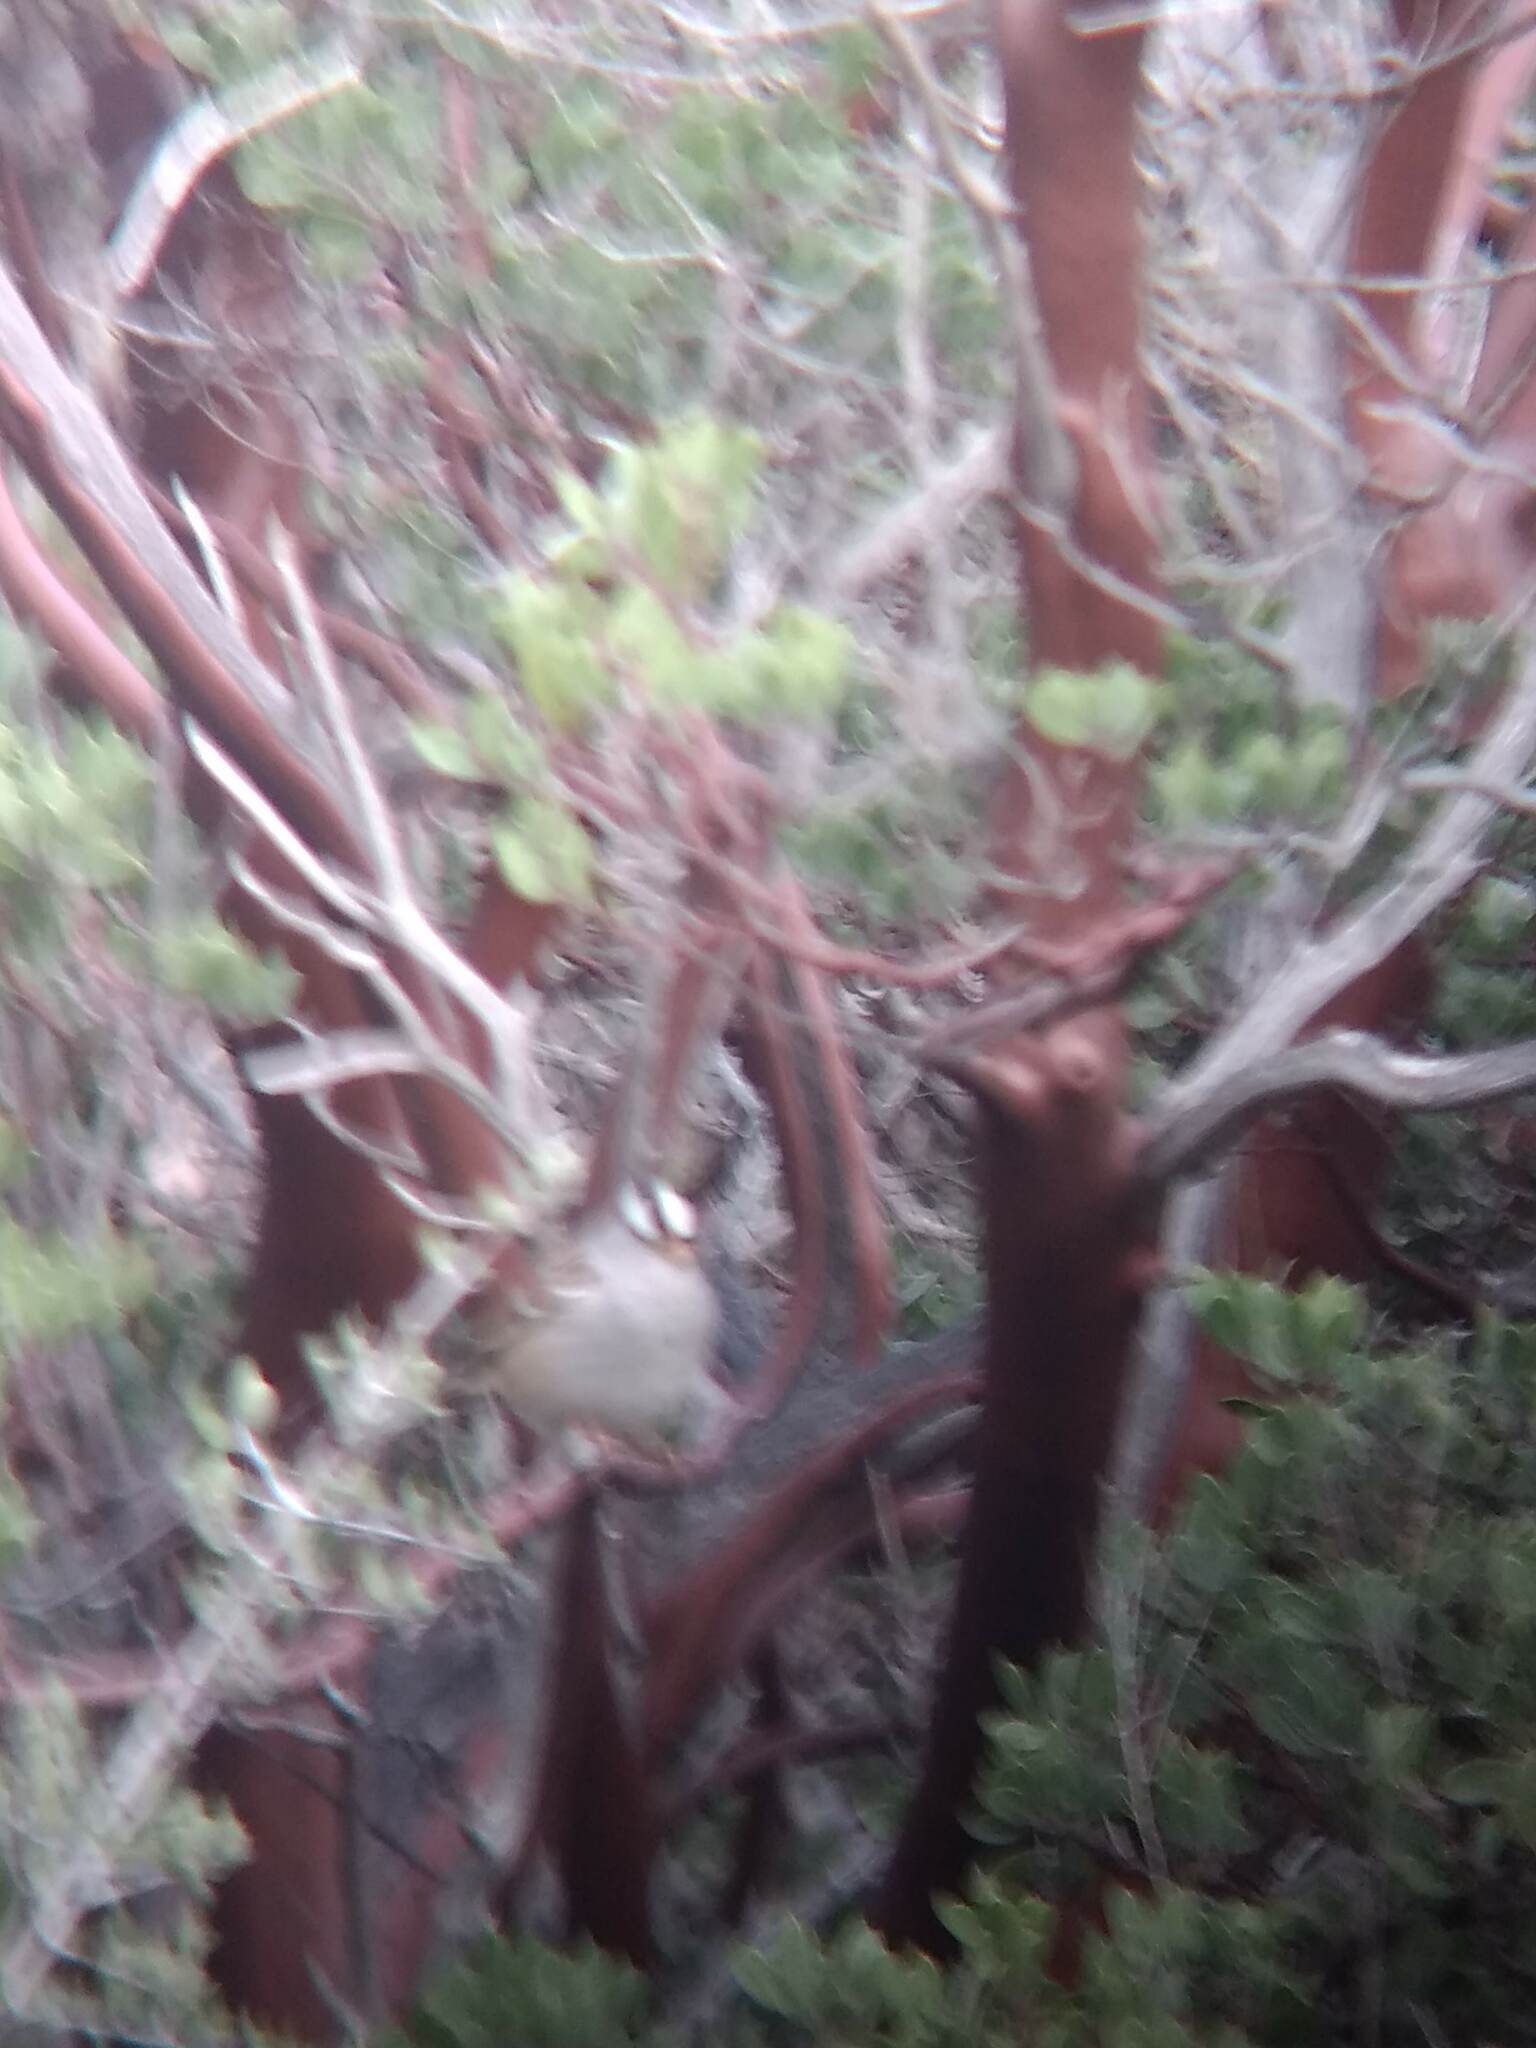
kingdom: Animalia
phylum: Chordata
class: Aves
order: Passeriformes
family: Passerellidae
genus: Zonotrichia
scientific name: Zonotrichia leucophrys
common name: White-crowned sparrow
